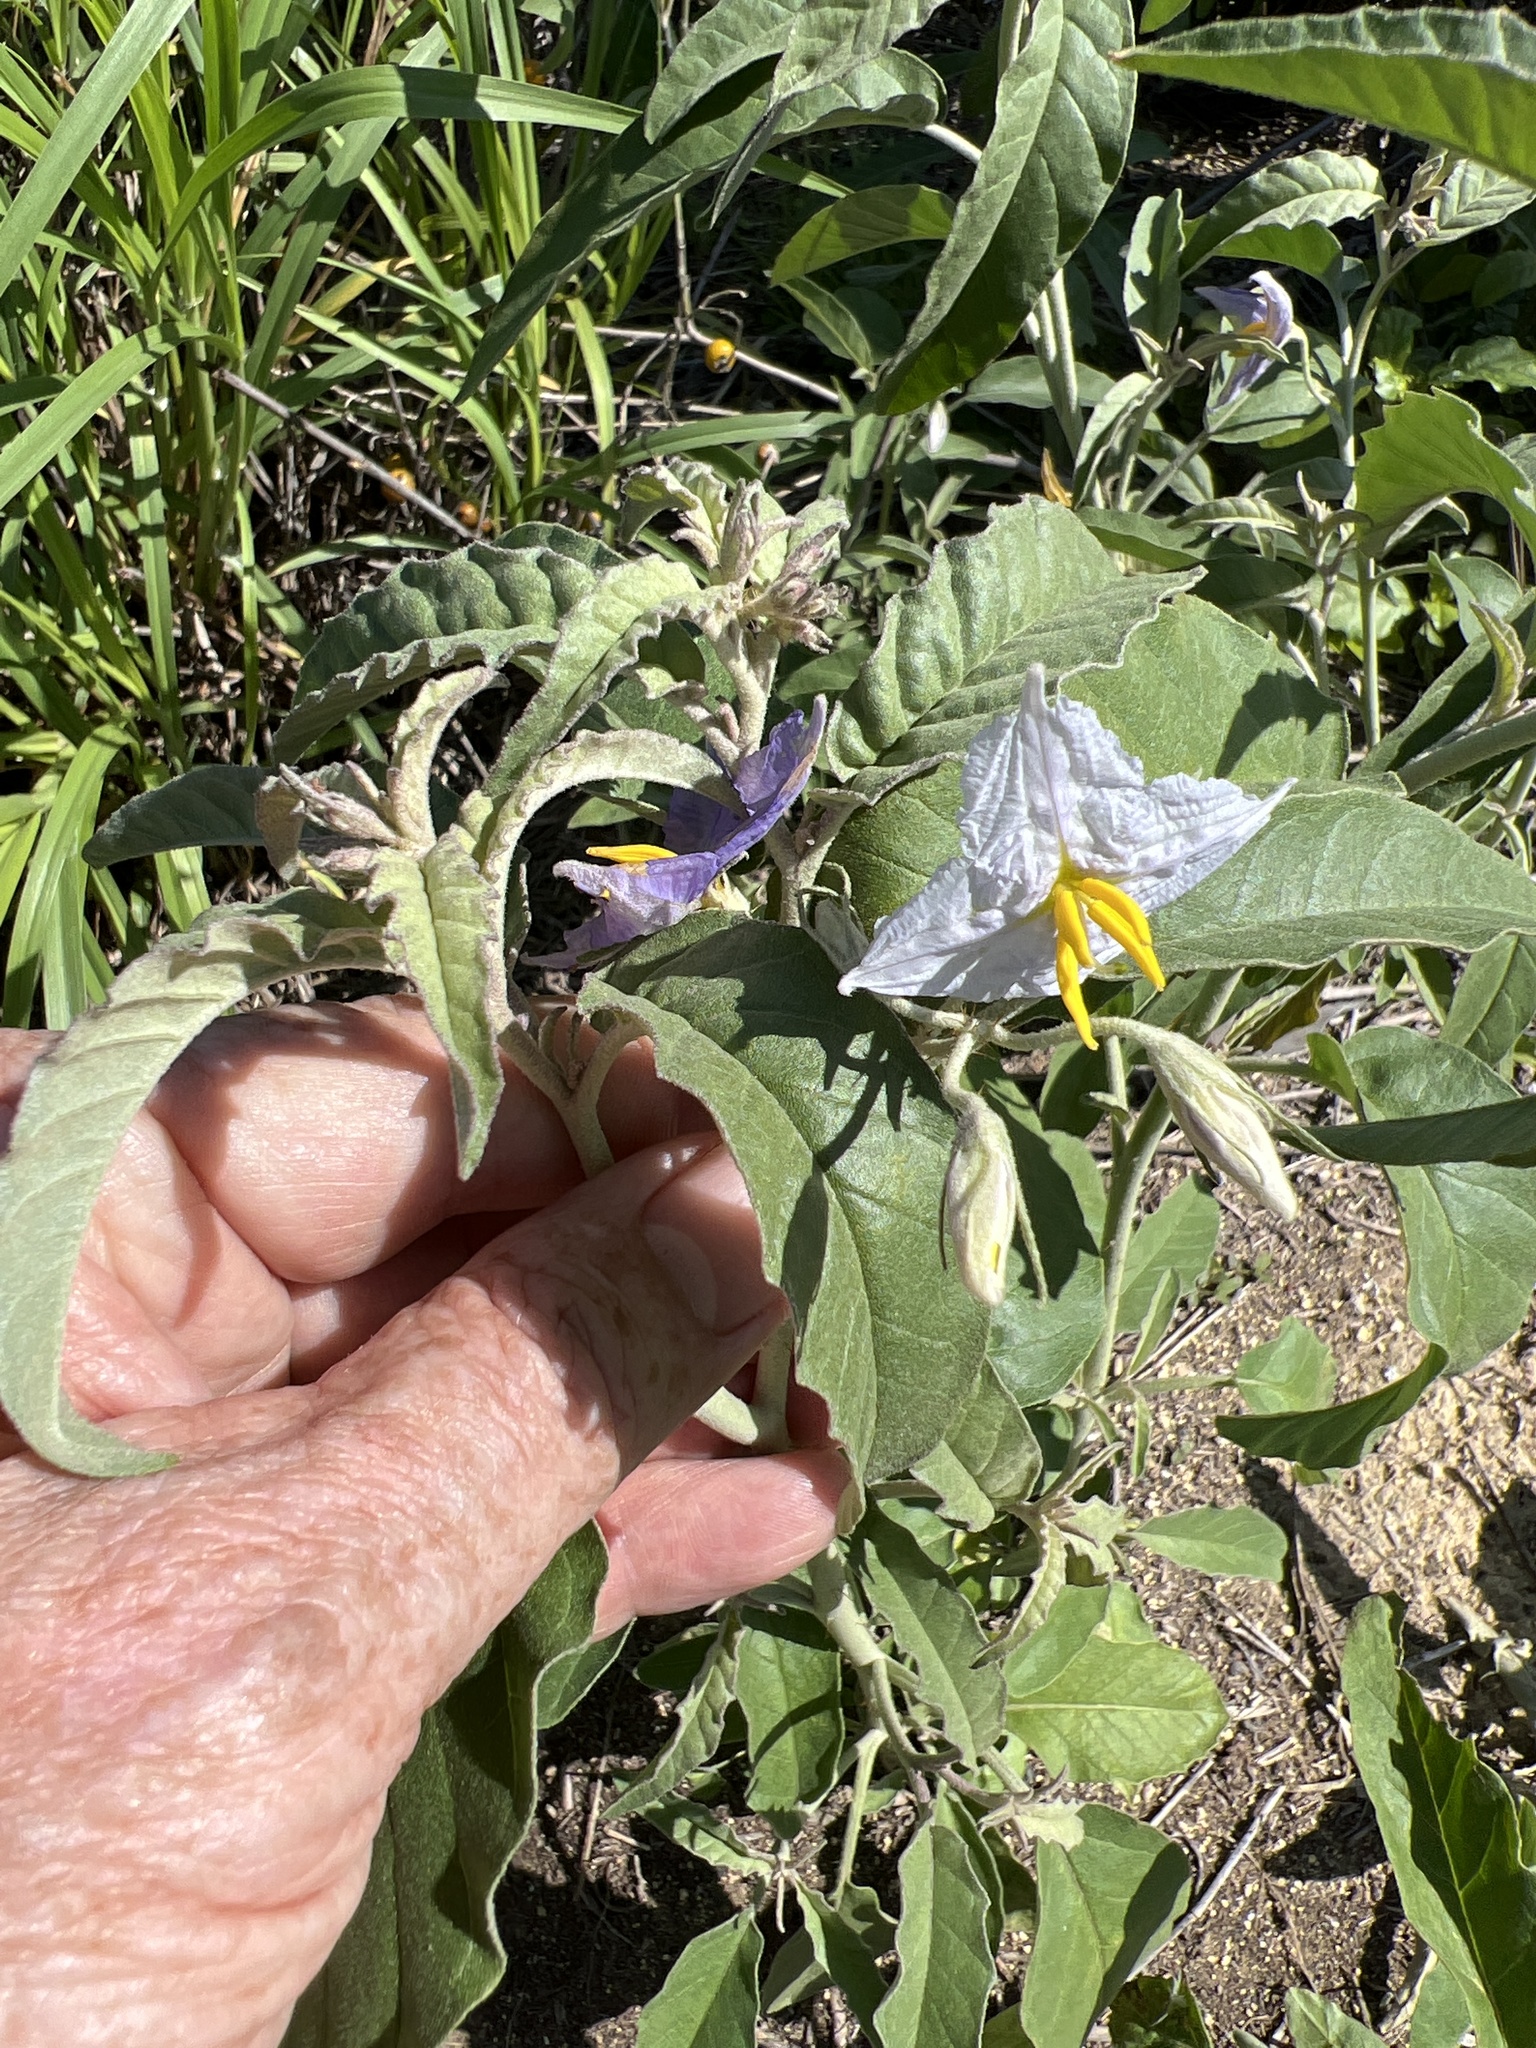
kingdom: Plantae
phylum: Tracheophyta
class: Magnoliopsida
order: Solanales
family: Solanaceae
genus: Solanum
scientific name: Solanum elaeagnifolium
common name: Silverleaf nightshade
